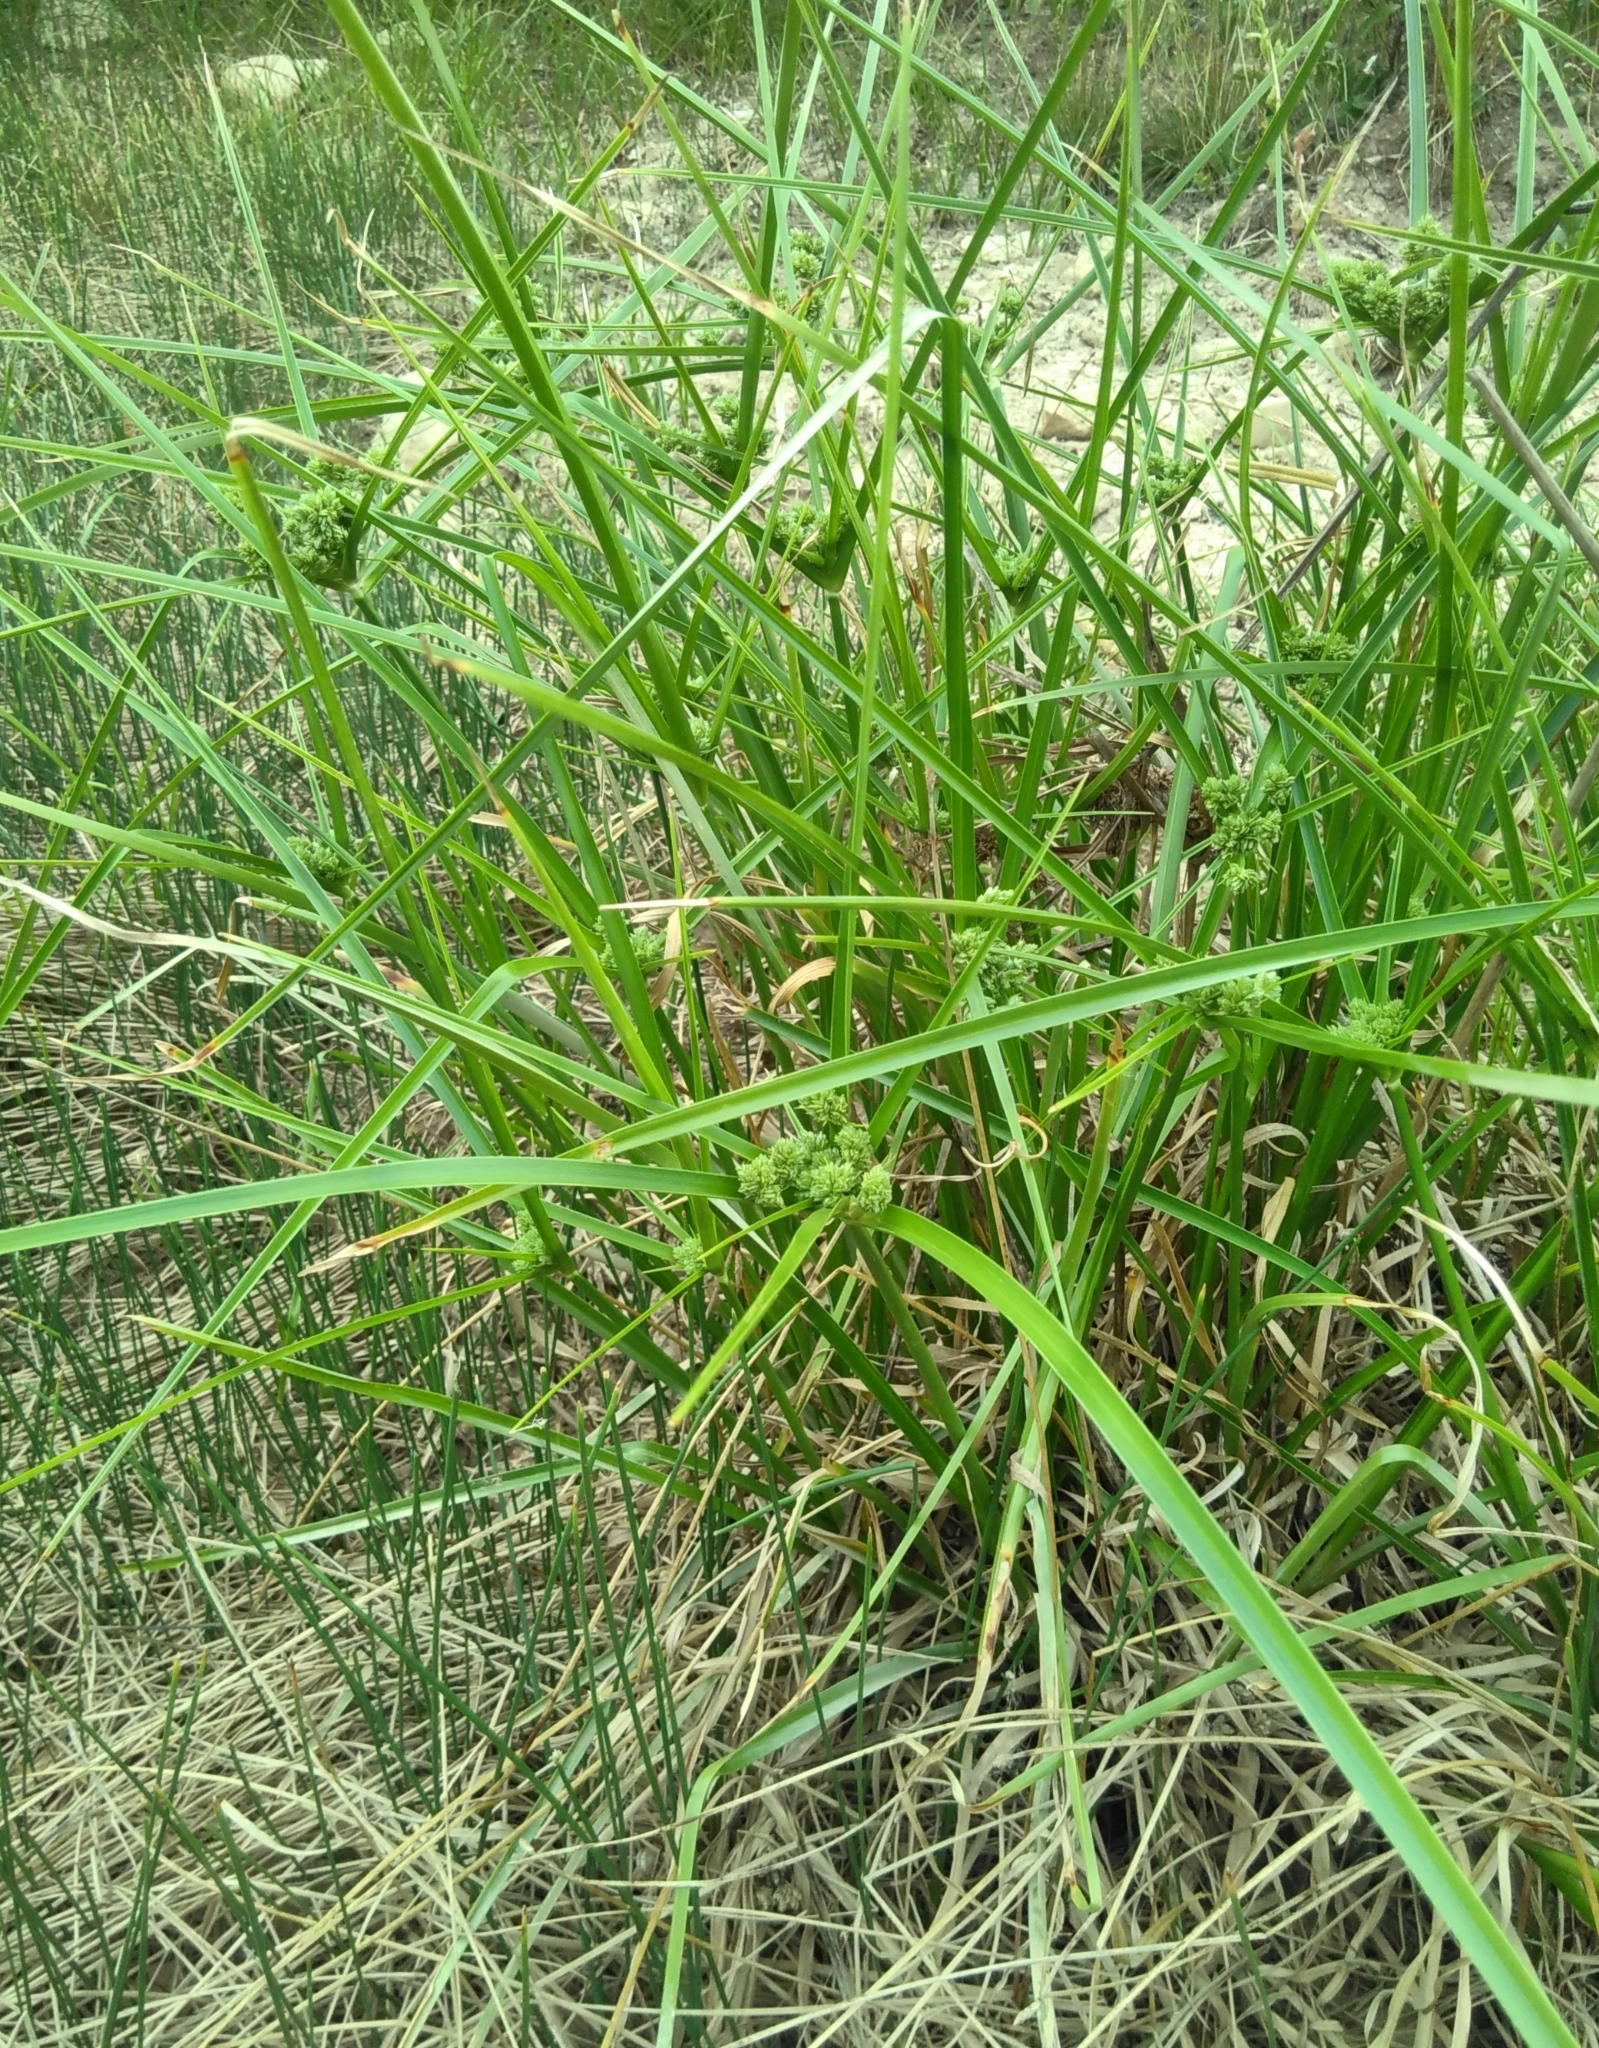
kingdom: Plantae
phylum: Tracheophyta
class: Liliopsida
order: Poales
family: Cyperaceae
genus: Cyperus
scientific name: Cyperus eragrostis
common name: Tall flatsedge
